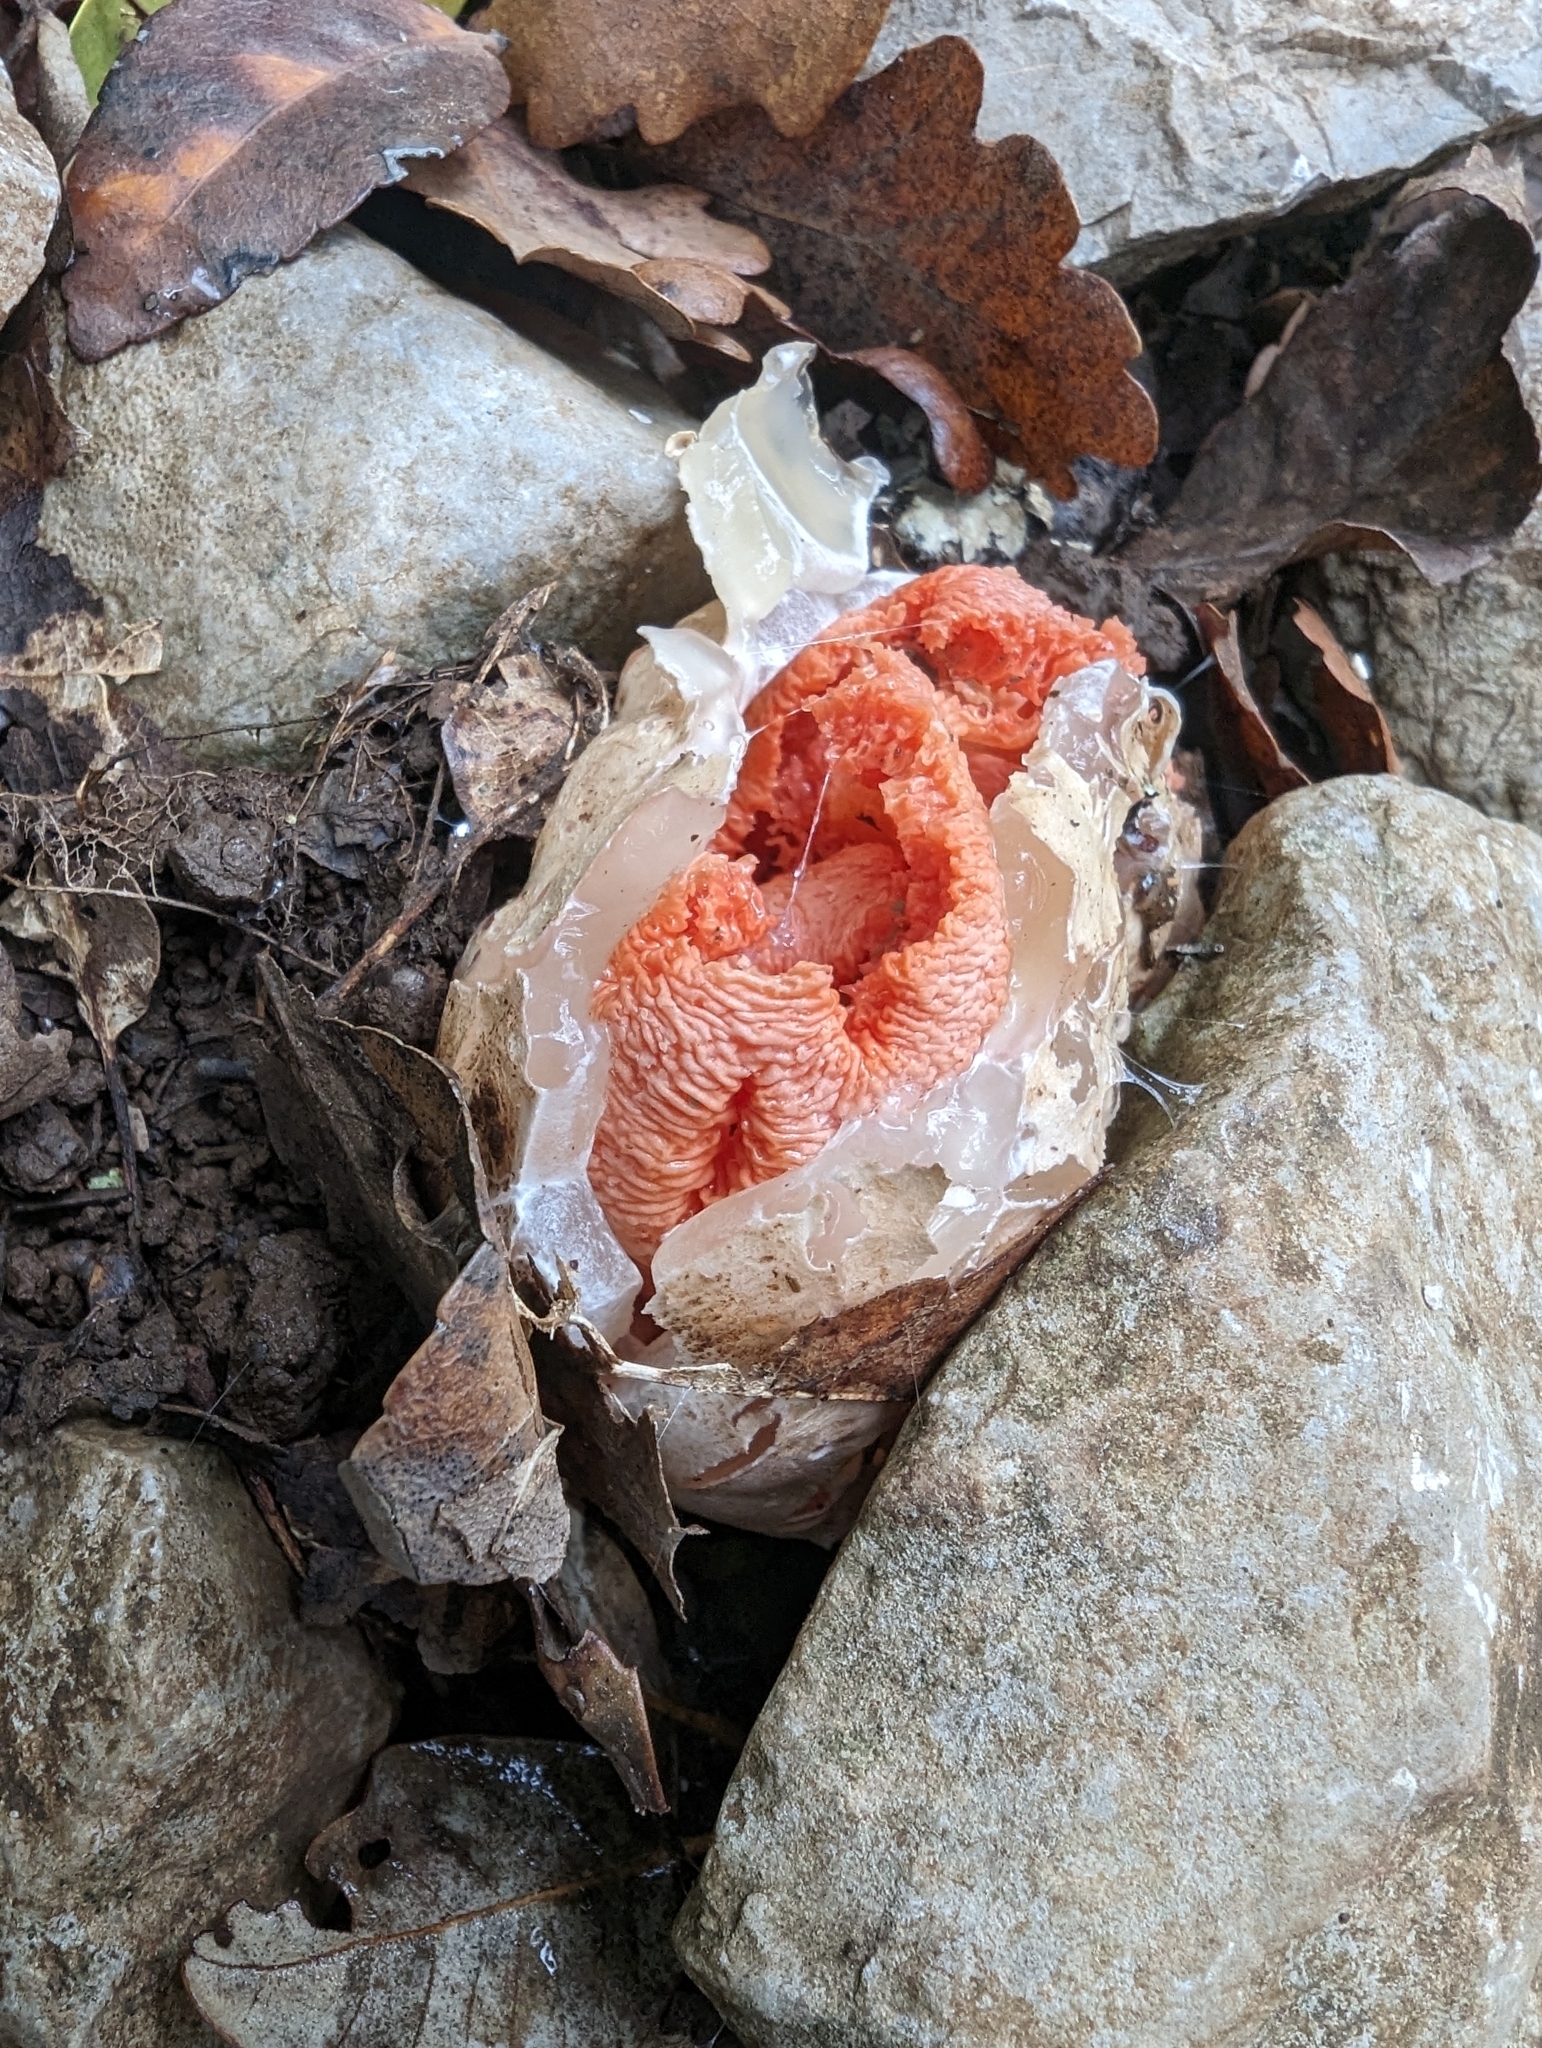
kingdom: Fungi
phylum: Basidiomycota
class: Agaricomycetes
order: Phallales
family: Phallaceae
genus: Clathrus
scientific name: Clathrus ruber
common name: Red cage
